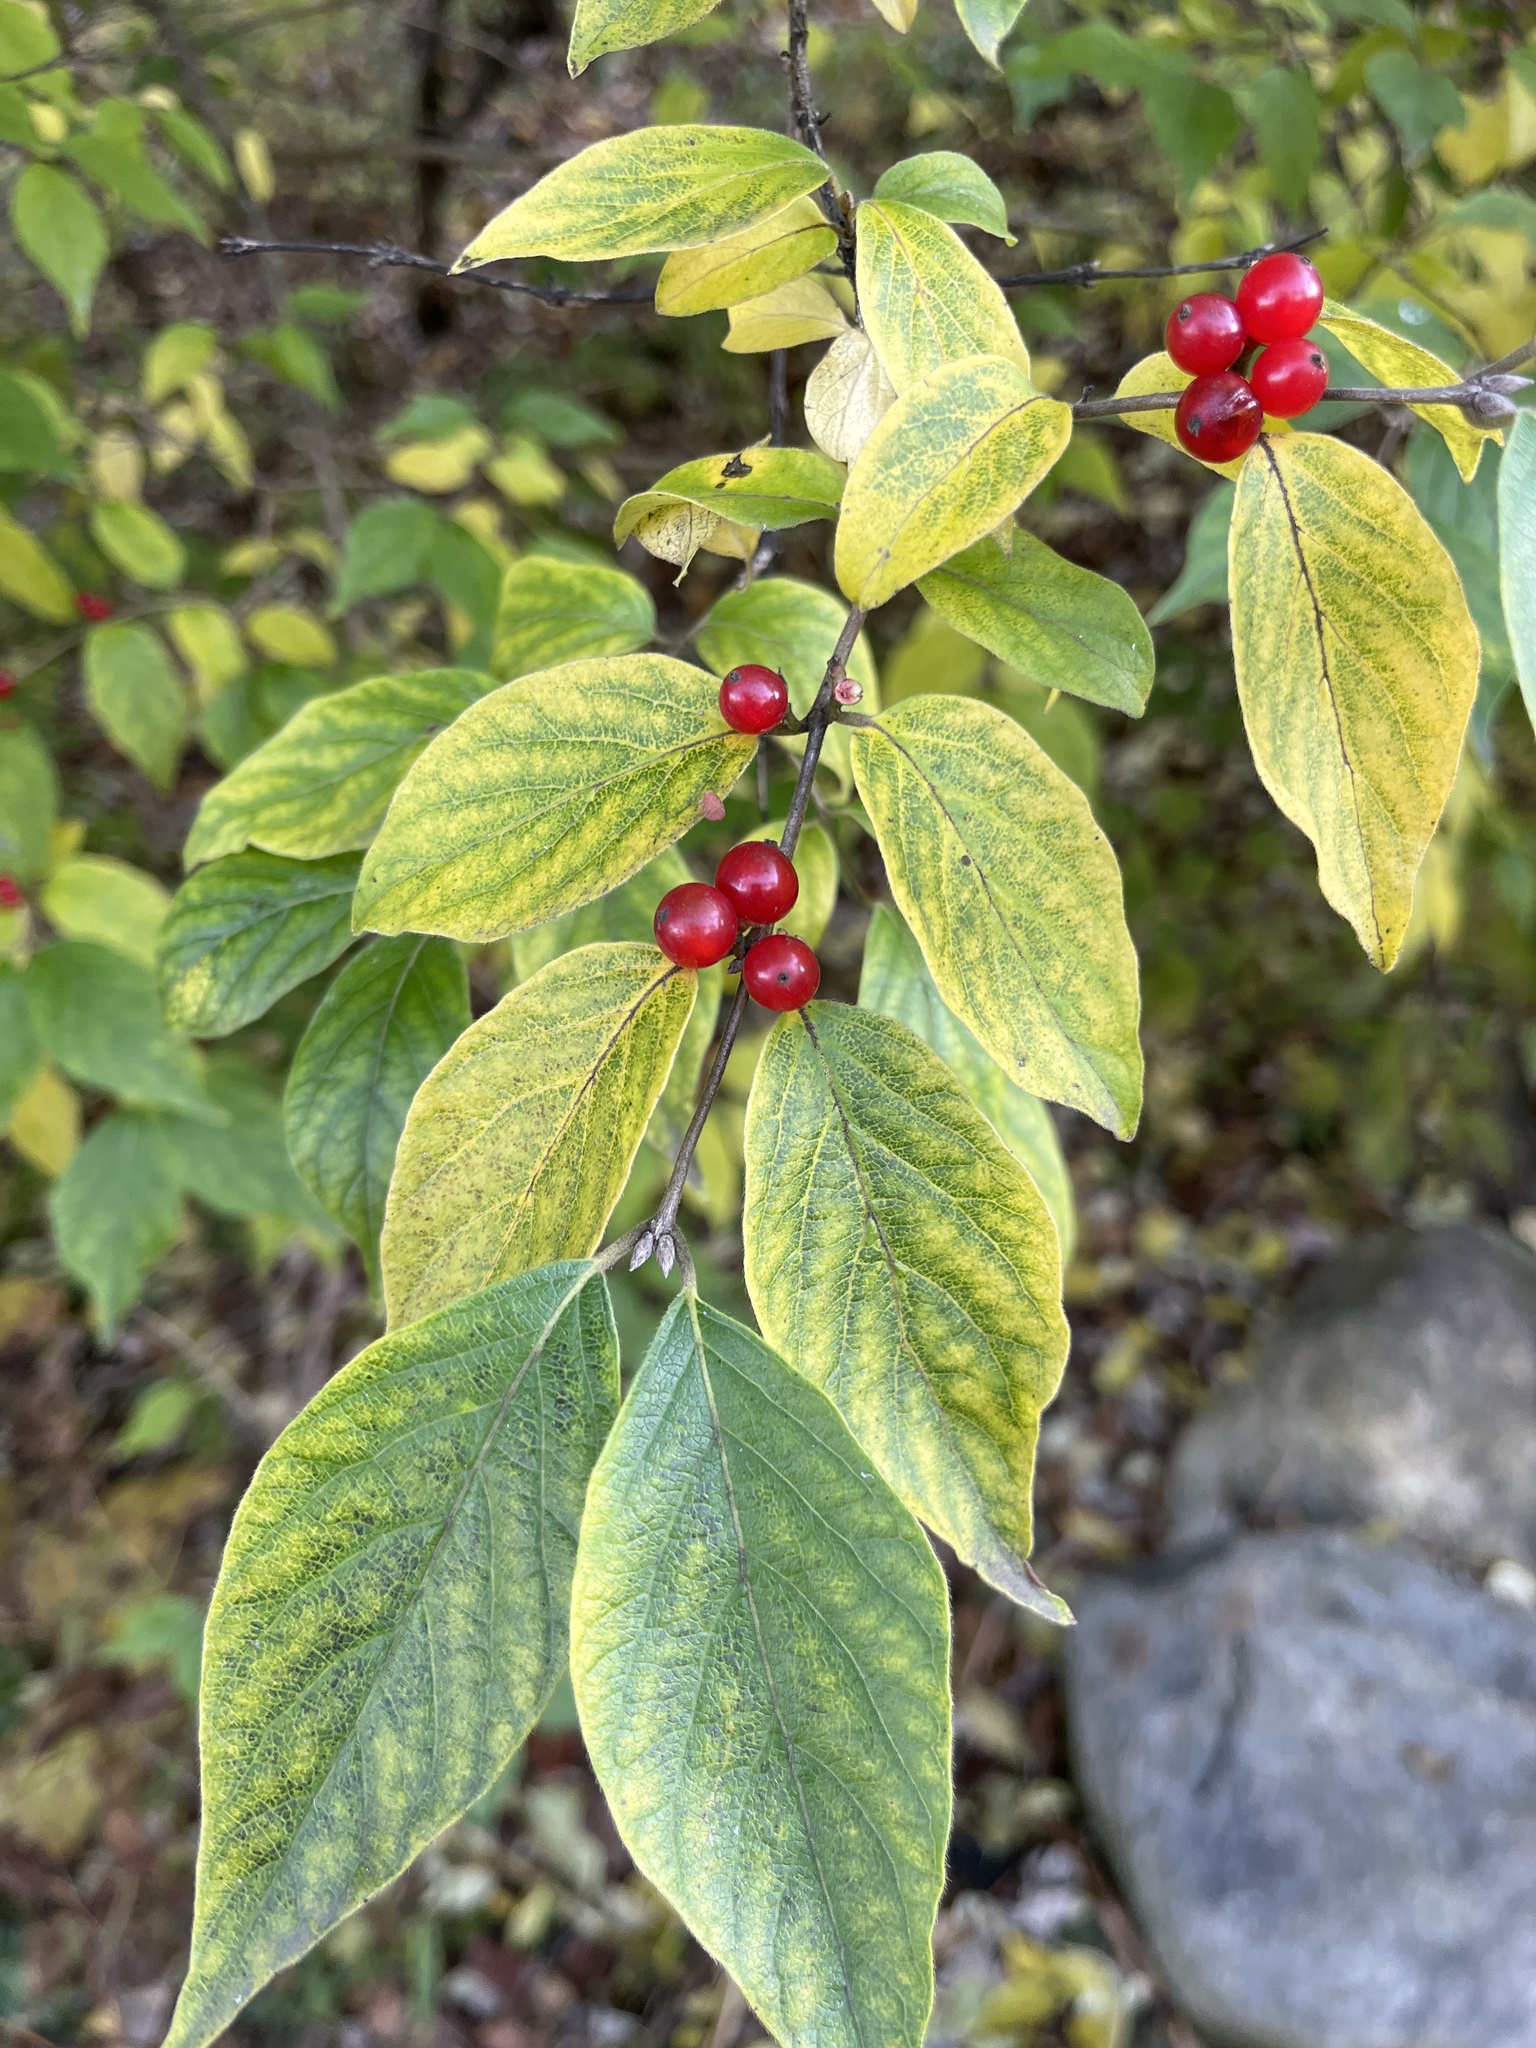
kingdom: Plantae
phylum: Tracheophyta
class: Magnoliopsida
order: Dipsacales
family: Caprifoliaceae
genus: Lonicera
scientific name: Lonicera maackii
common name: Amur honeysuckle
